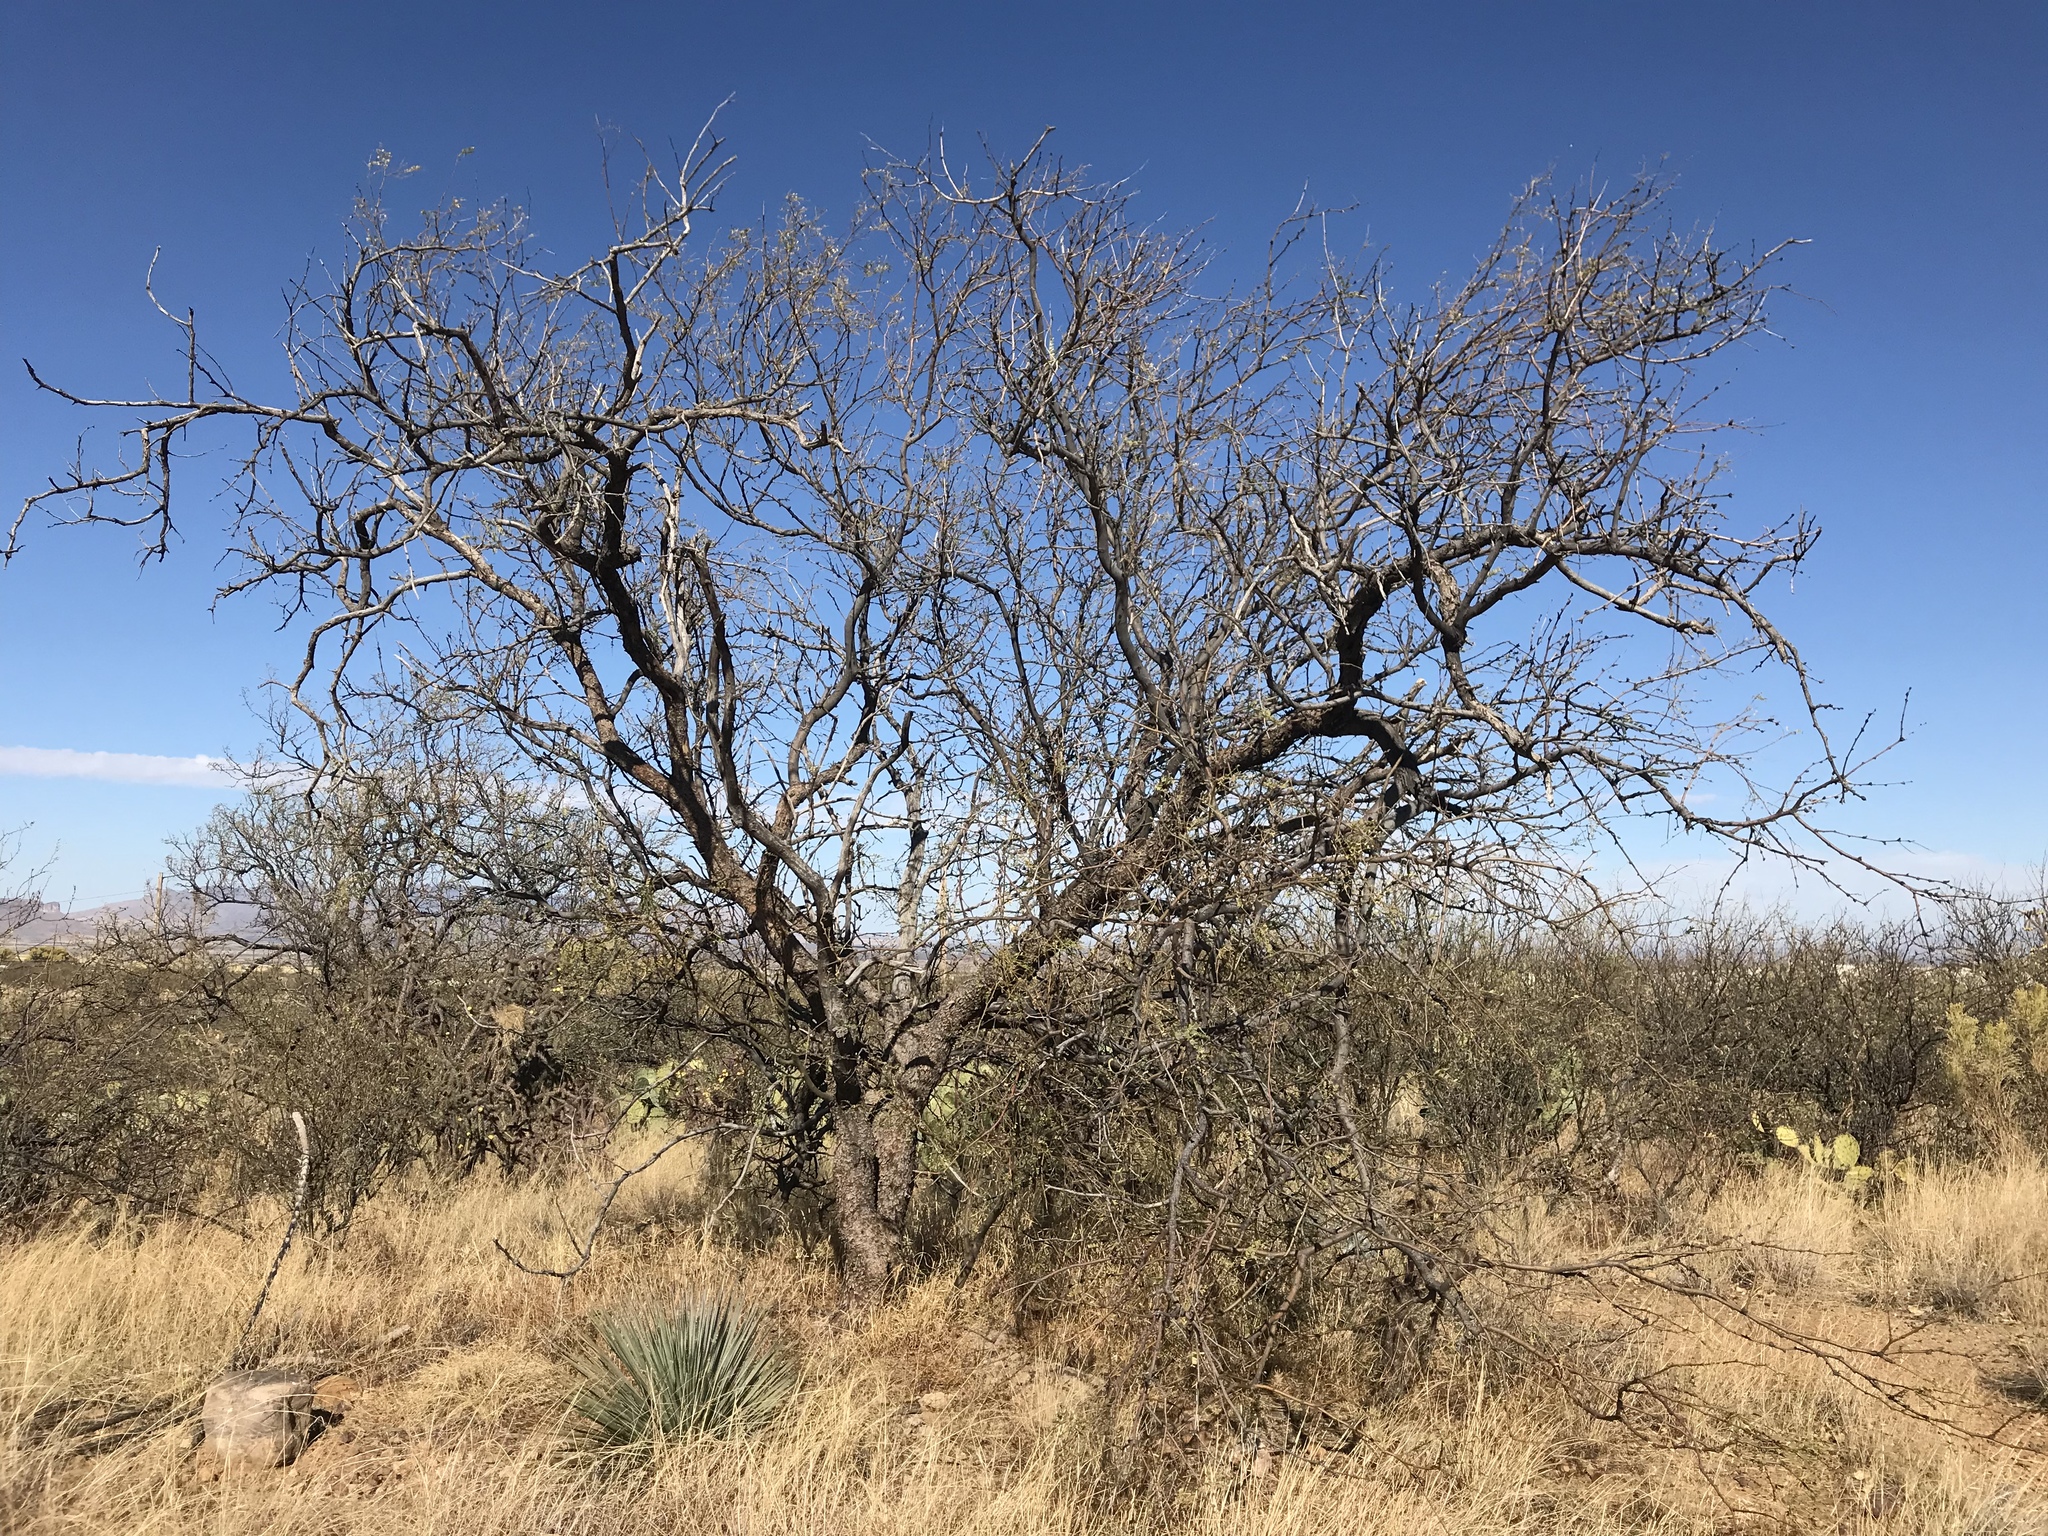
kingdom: Plantae
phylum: Tracheophyta
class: Magnoliopsida
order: Fabales
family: Fabaceae
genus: Prosopis
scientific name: Prosopis velutina
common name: Velvet mesquite
